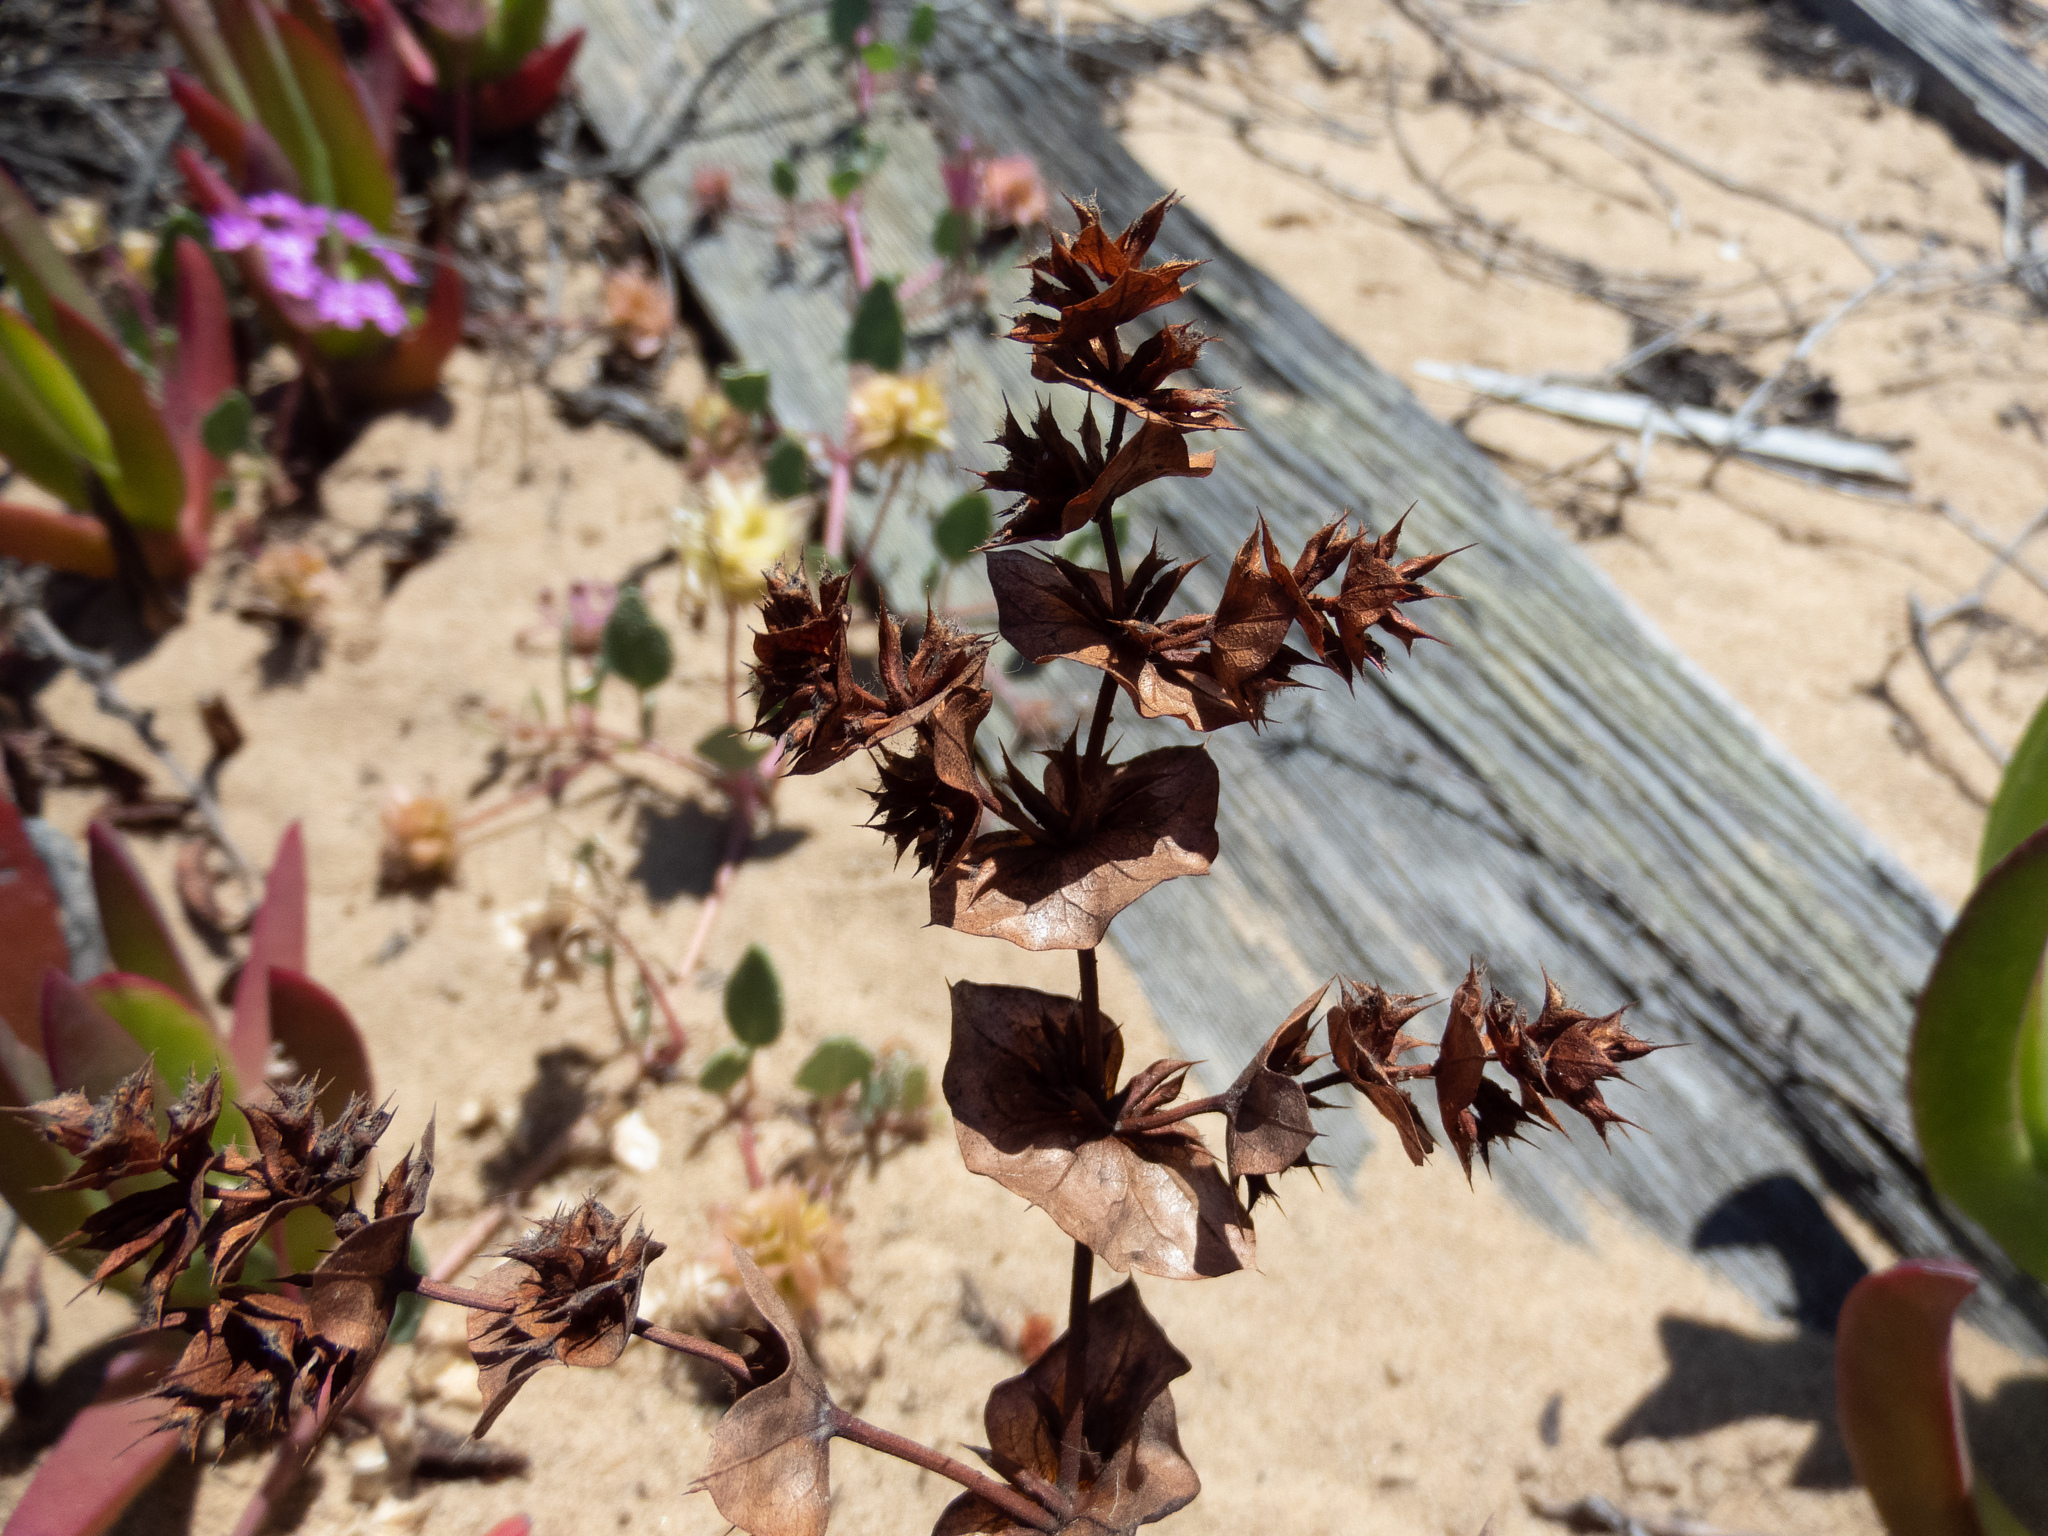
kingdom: Plantae
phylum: Tracheophyta
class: Magnoliopsida
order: Caryophyllales
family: Polygonaceae
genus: Mucronea
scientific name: Mucronea perfoliata
